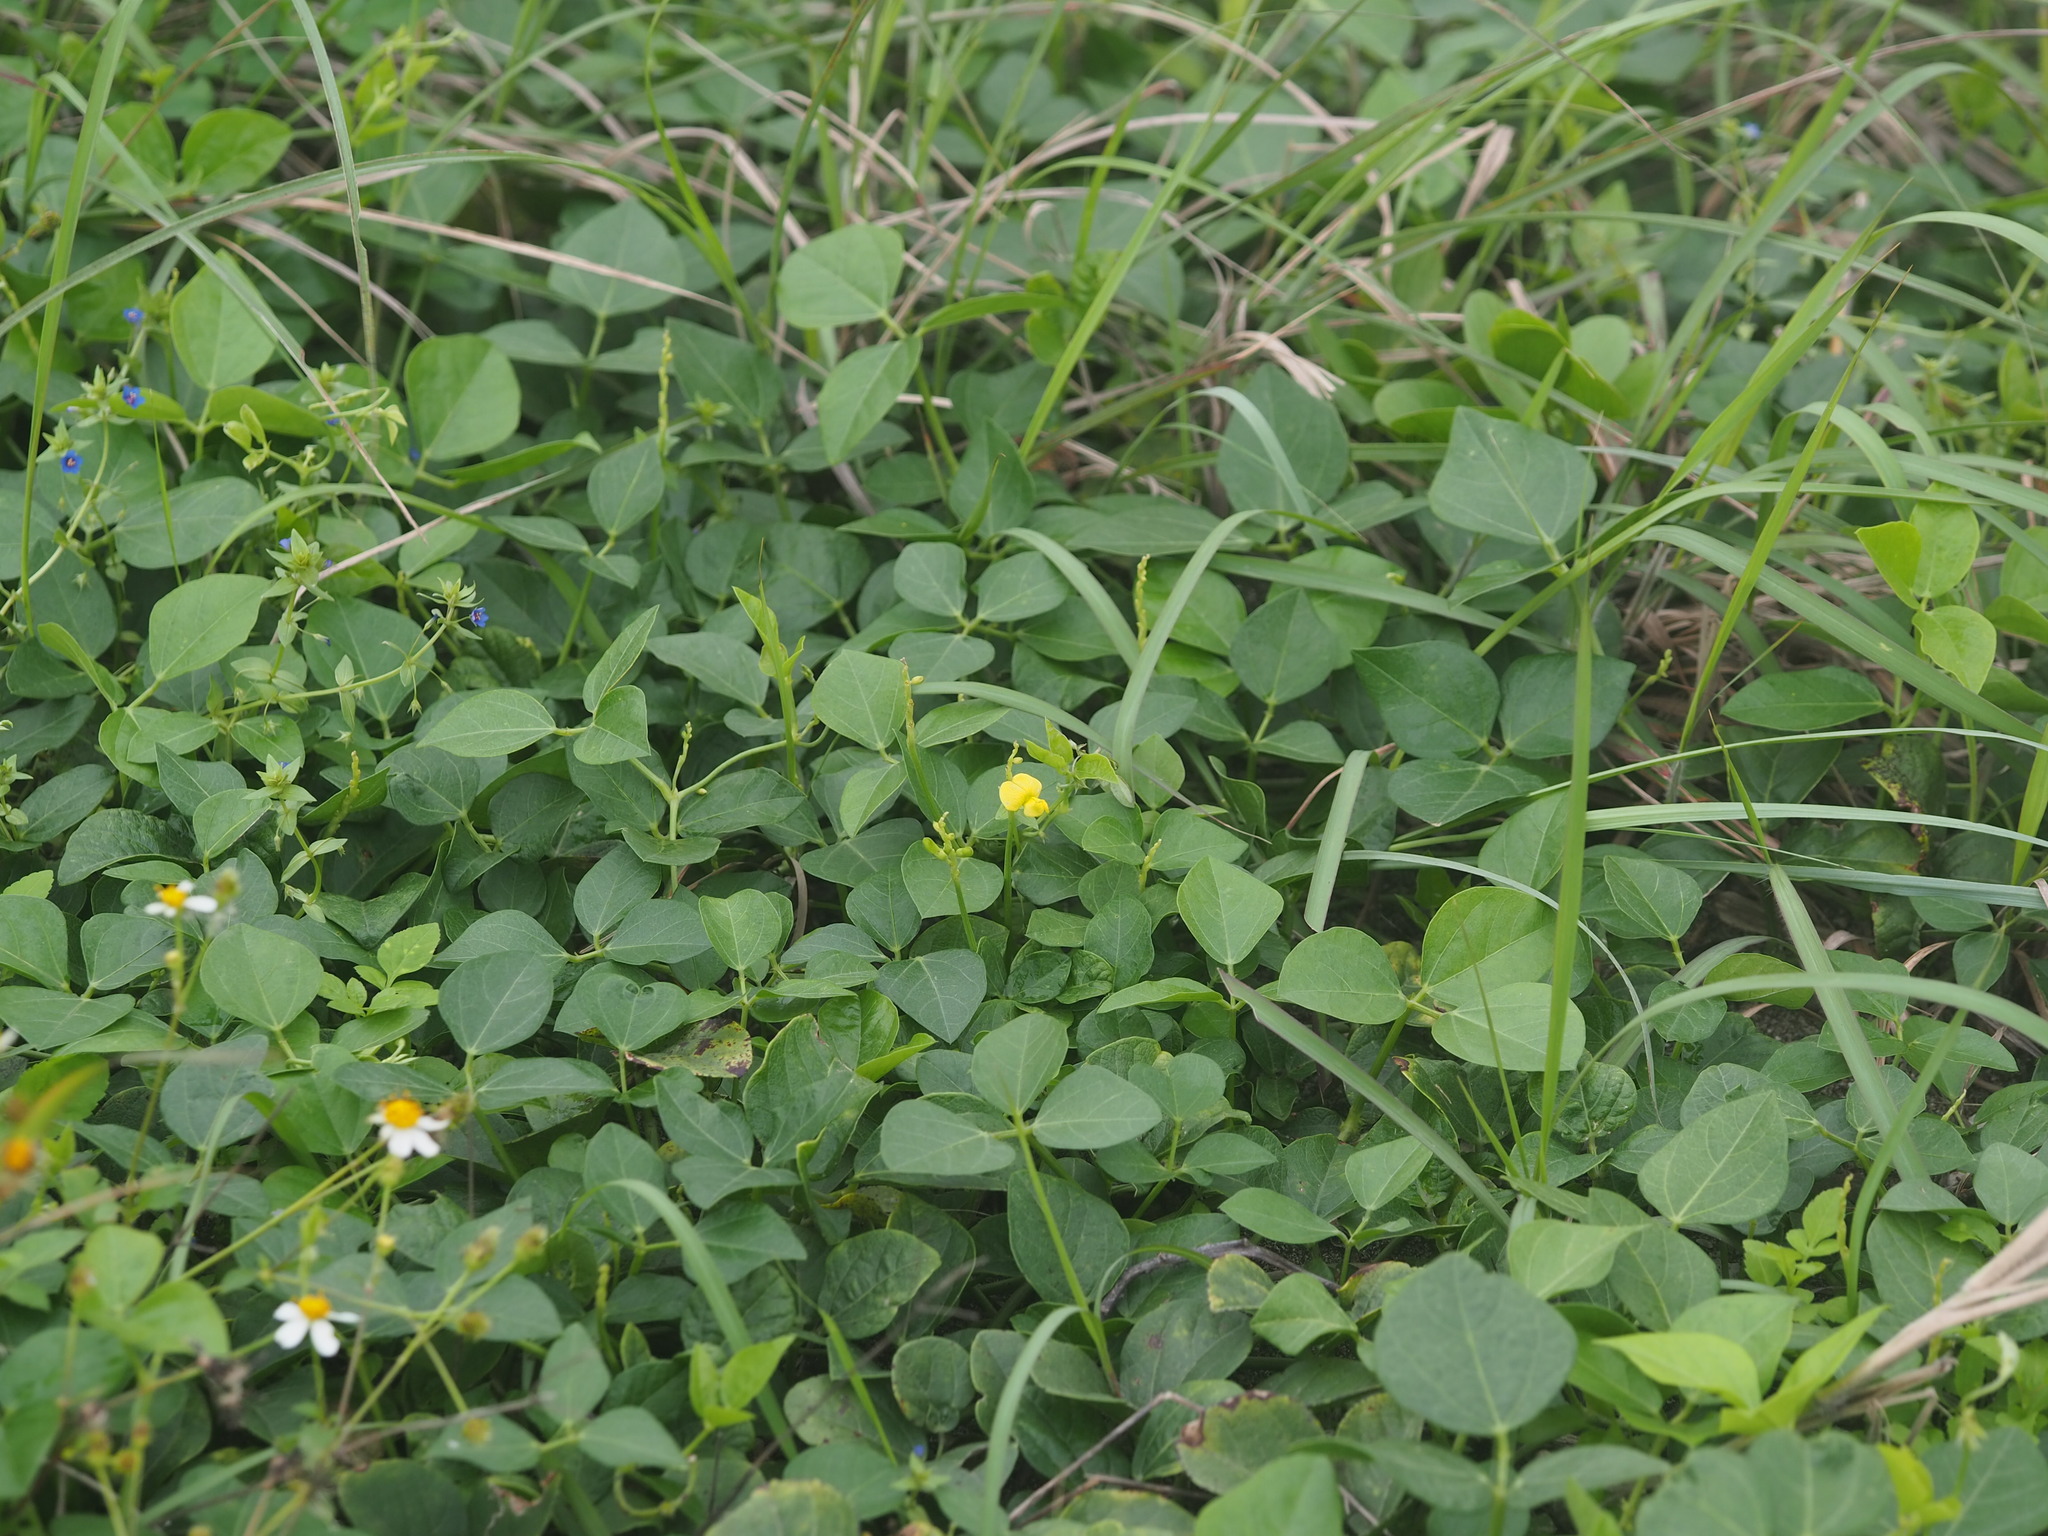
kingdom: Plantae
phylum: Tracheophyta
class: Magnoliopsida
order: Fabales
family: Fabaceae
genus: Vigna
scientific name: Vigna marina
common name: Dune-bean
